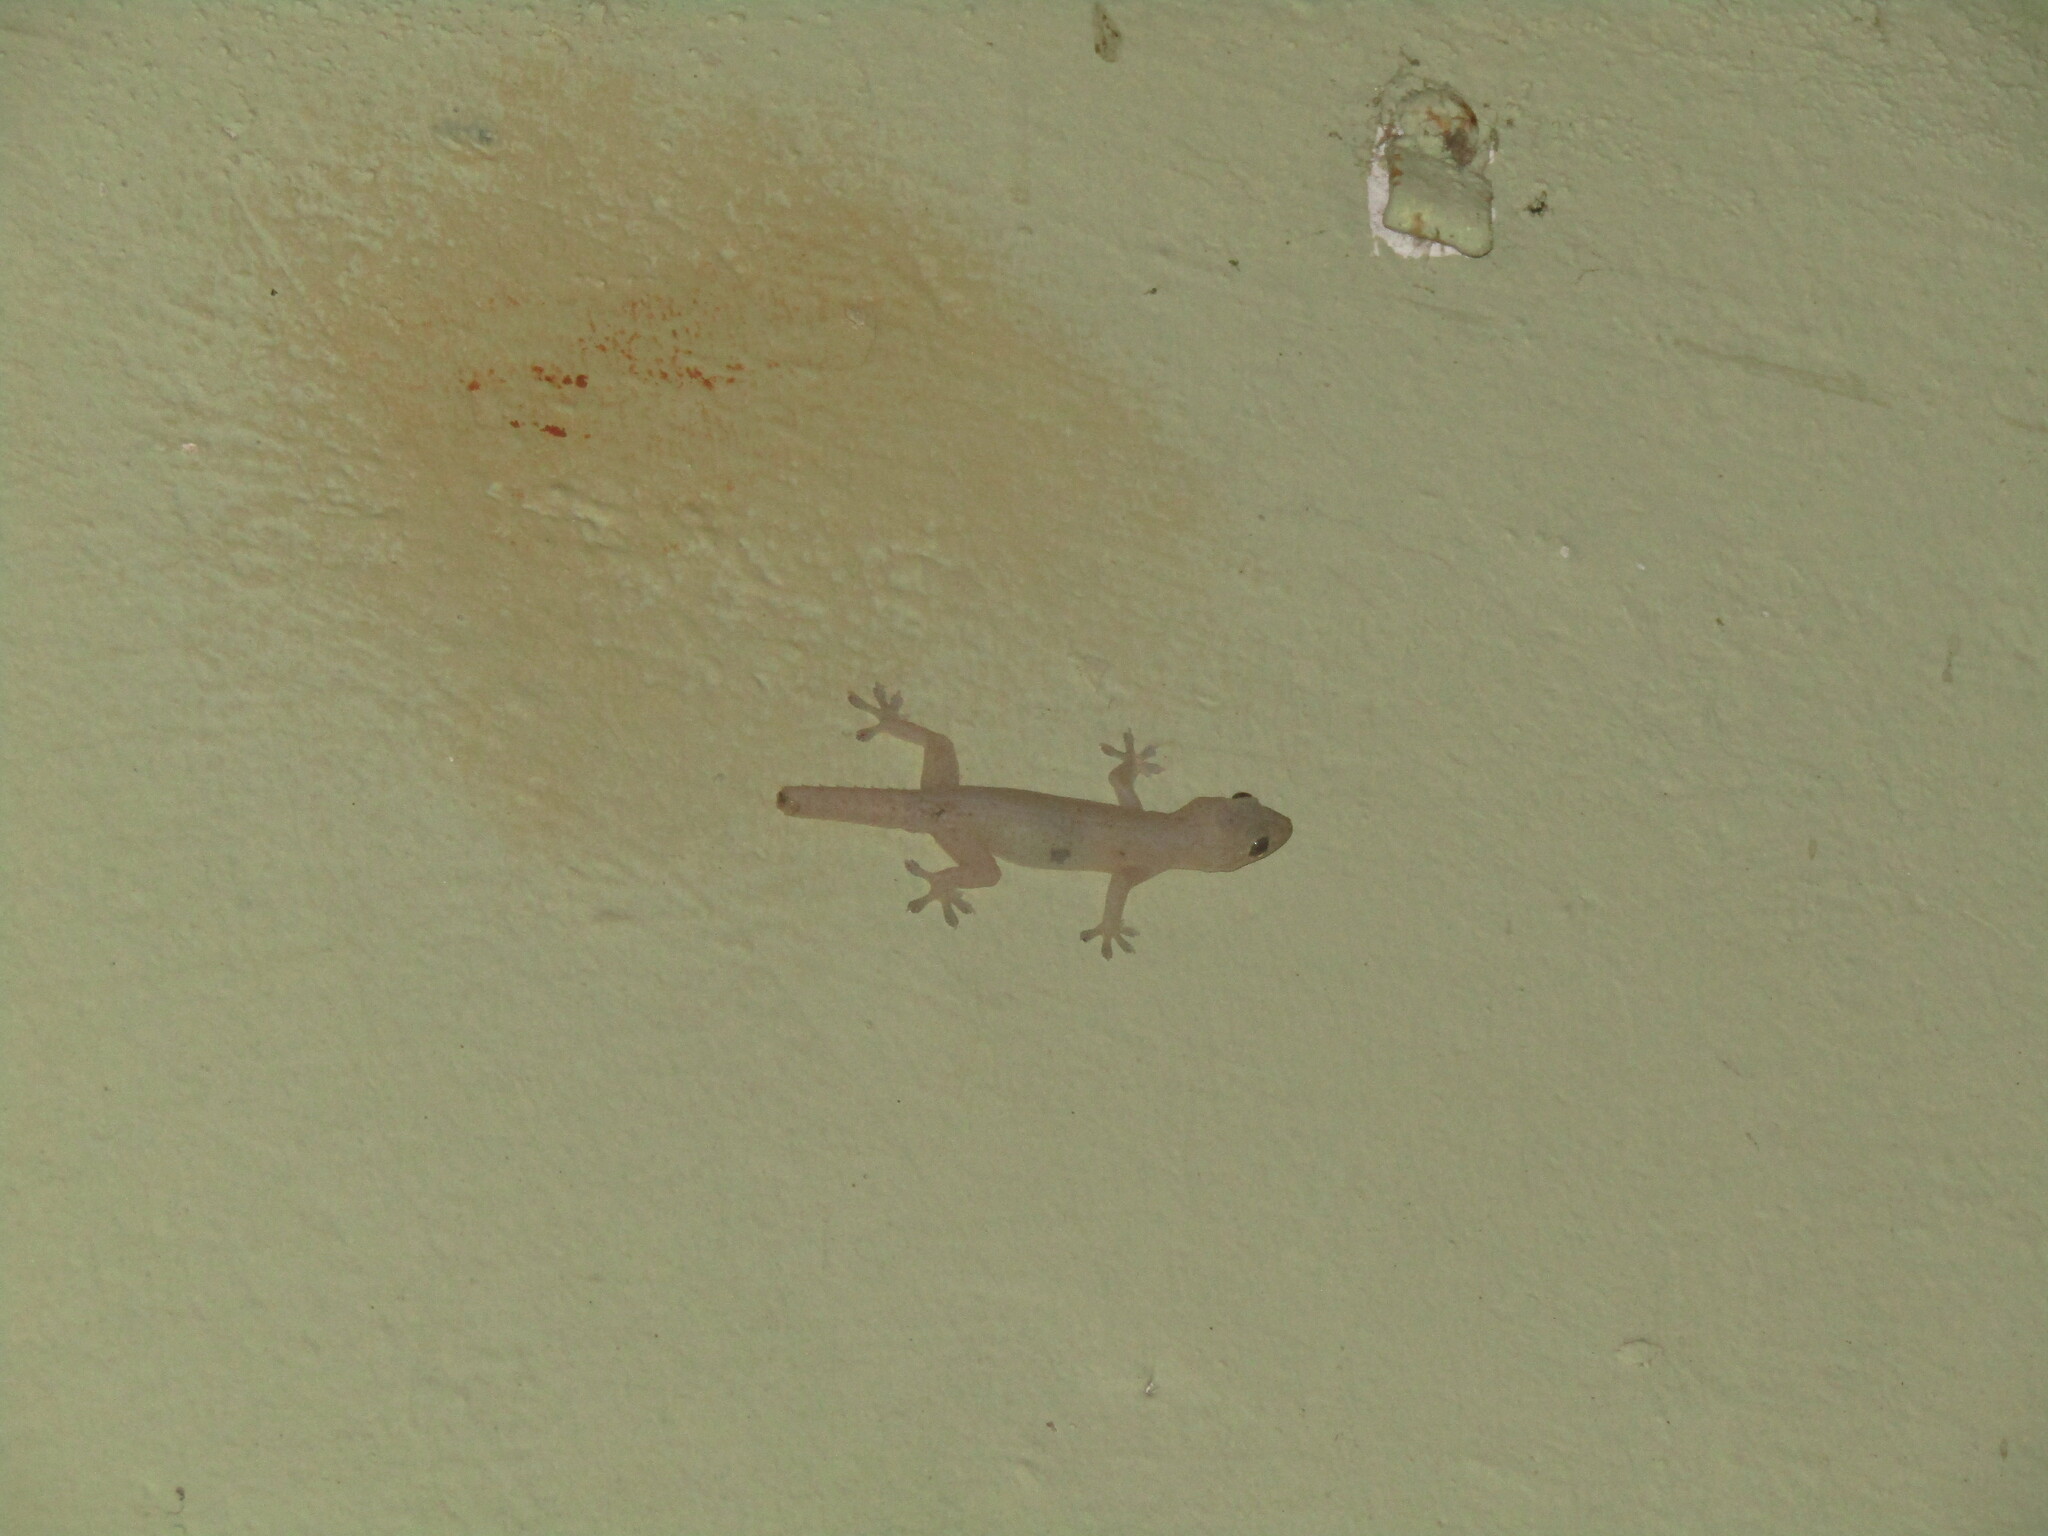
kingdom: Animalia
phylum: Chordata
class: Squamata
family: Gekkonidae
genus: Hemidactylus
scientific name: Hemidactylus frenatus
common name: Common house gecko
